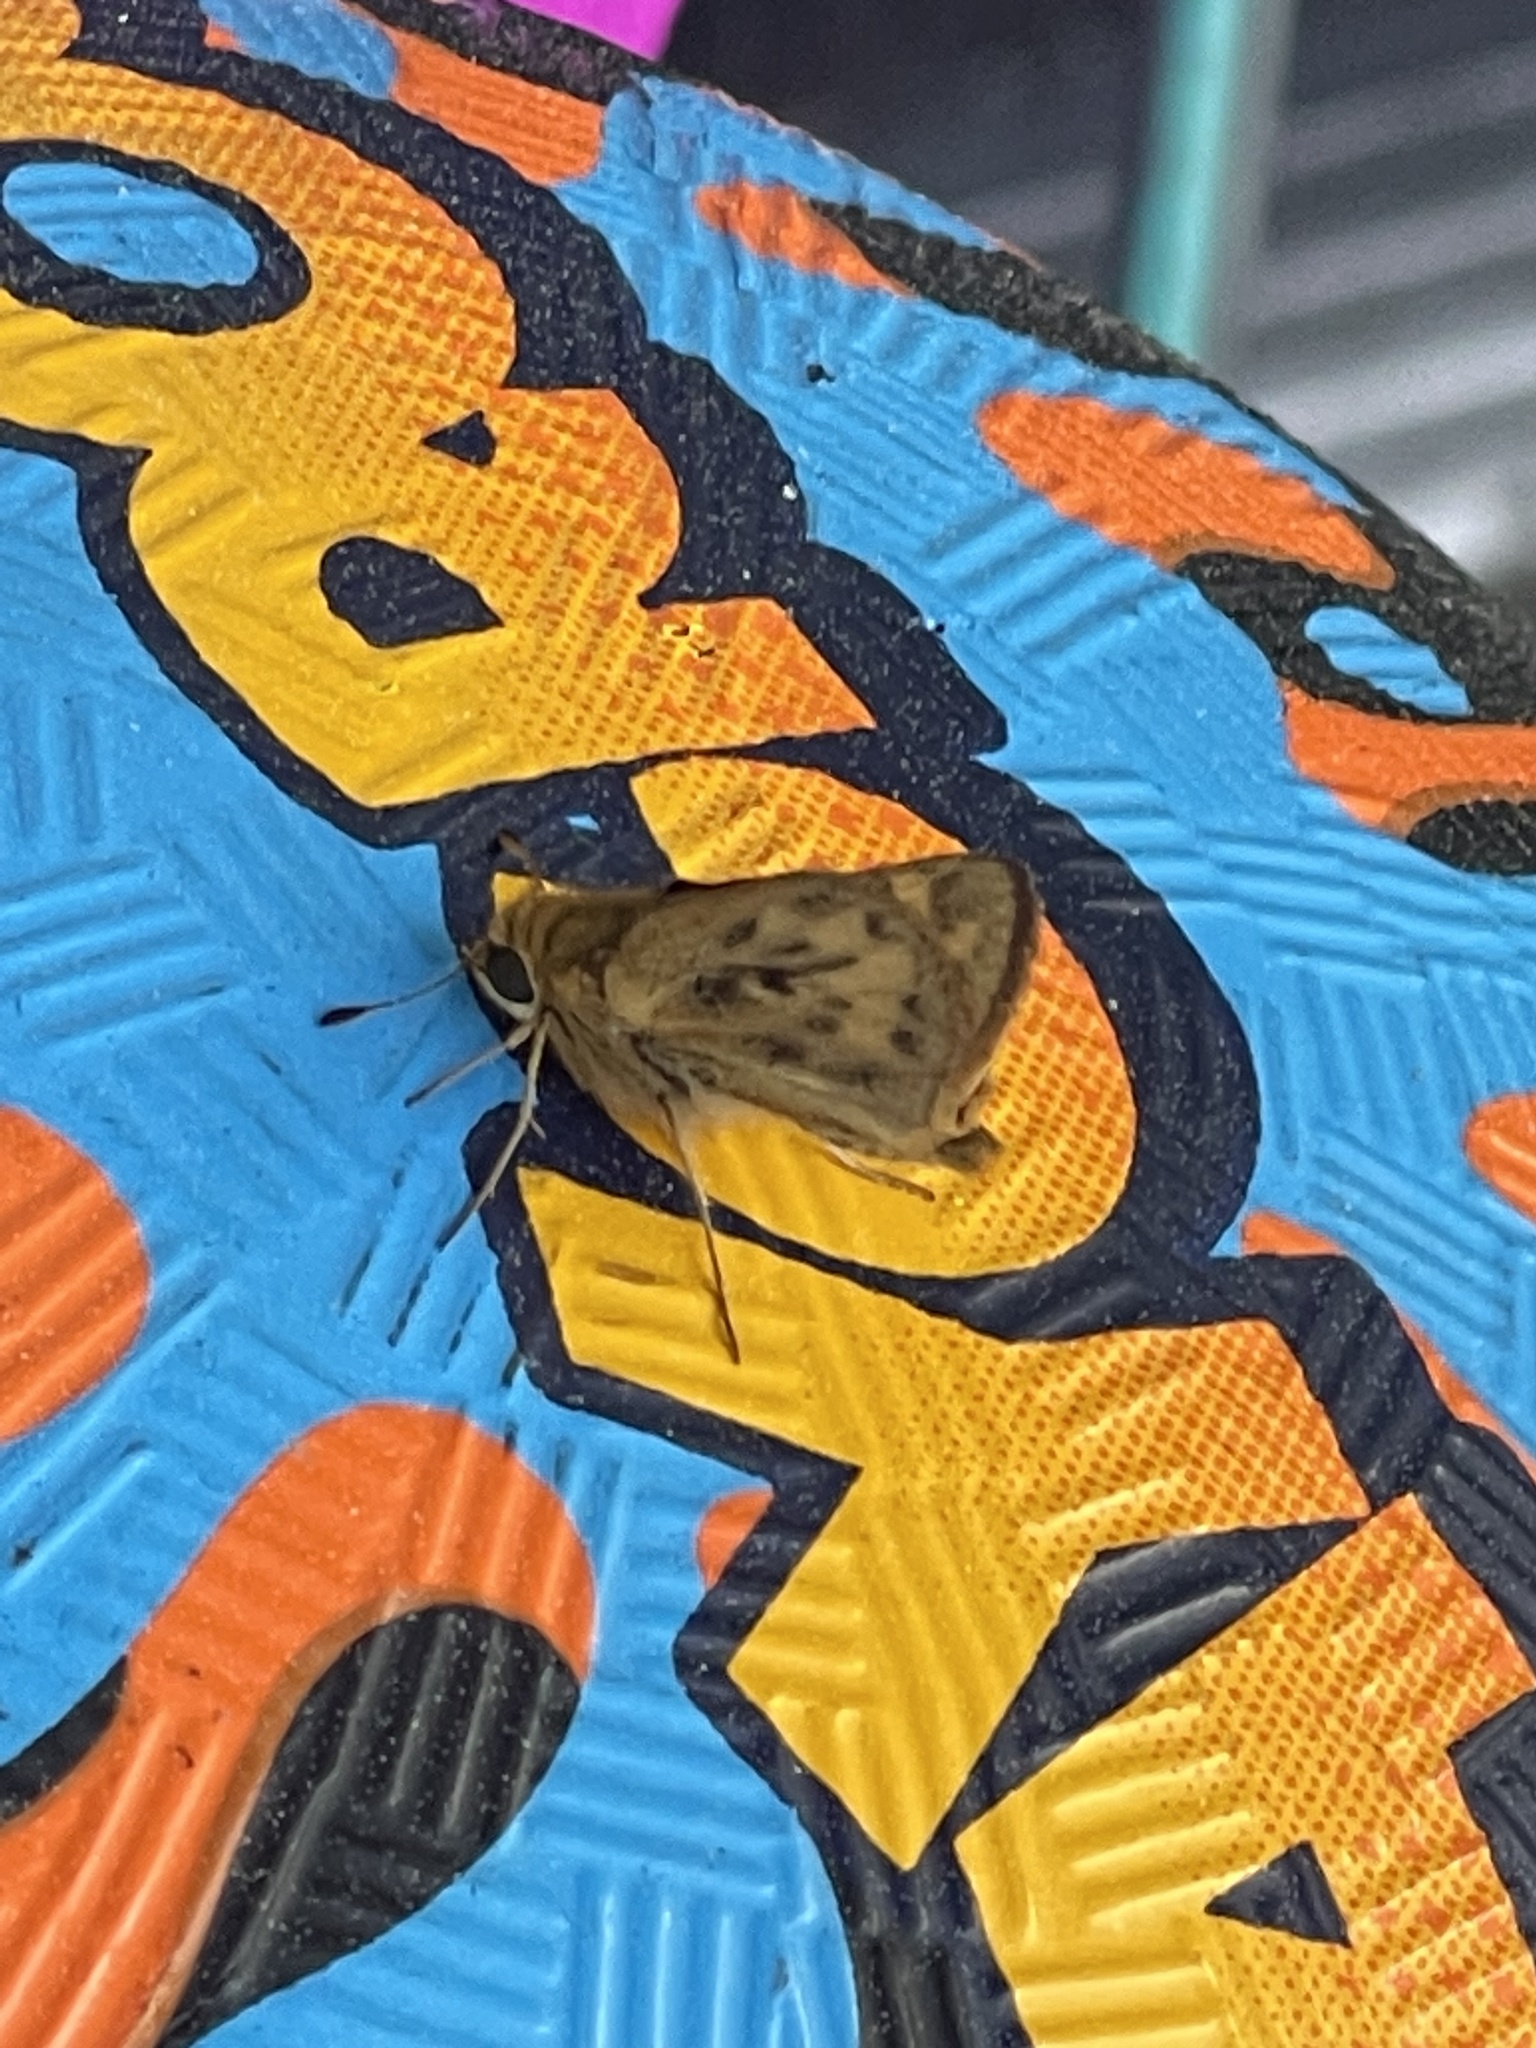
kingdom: Animalia
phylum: Arthropoda
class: Insecta
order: Lepidoptera
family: Hesperiidae
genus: Hylephila
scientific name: Hylephila phyleus
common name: Fiery skipper
